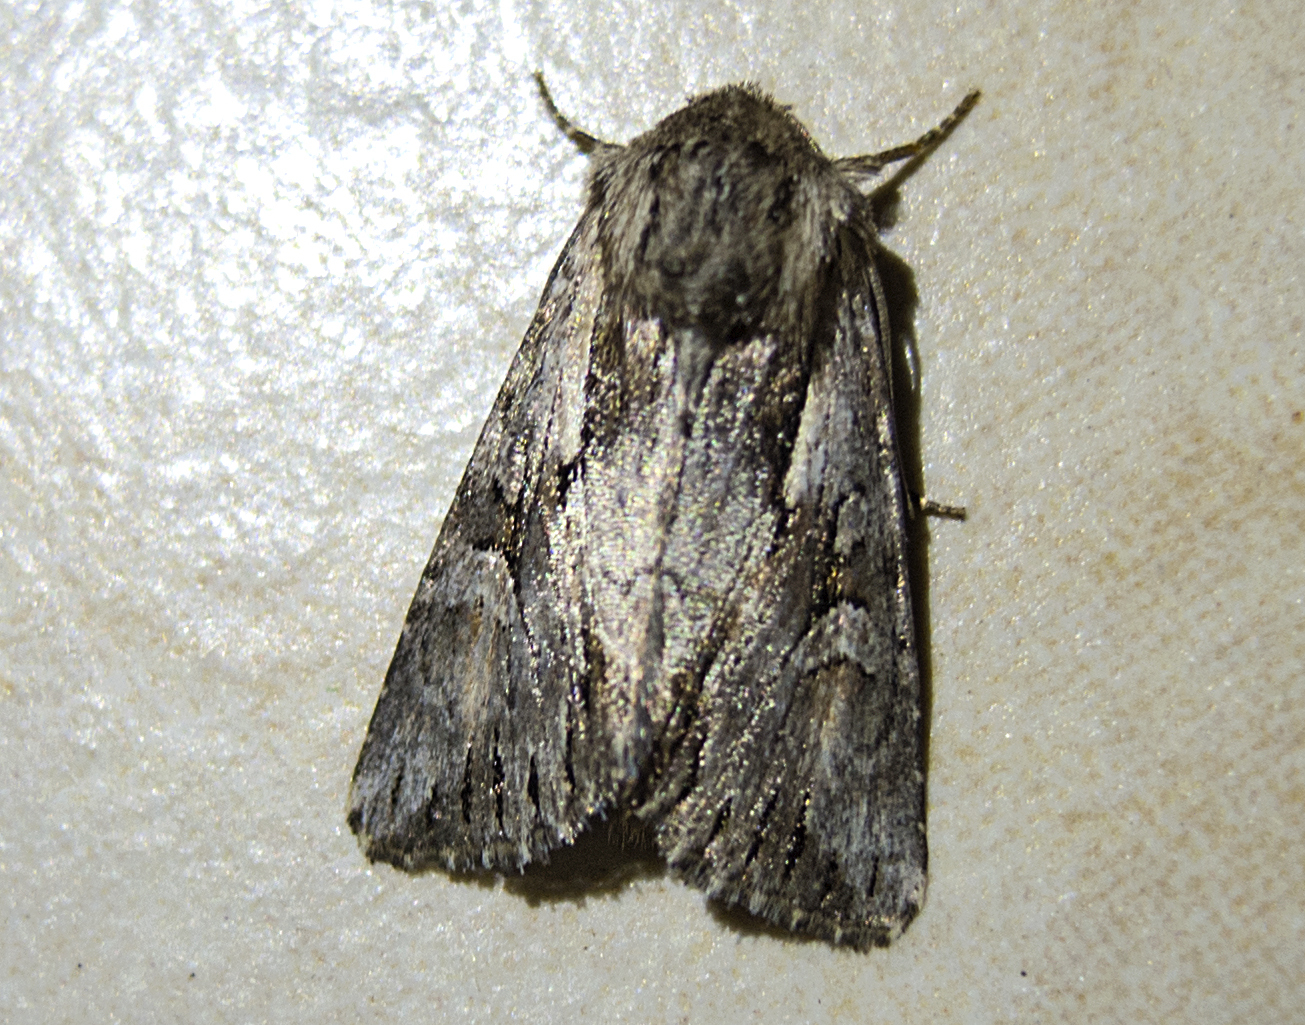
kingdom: Animalia
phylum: Arthropoda
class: Insecta
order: Lepidoptera
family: Noctuidae
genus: Chloantha
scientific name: Chloantha hyperici
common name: Pale-shouldered cloud
